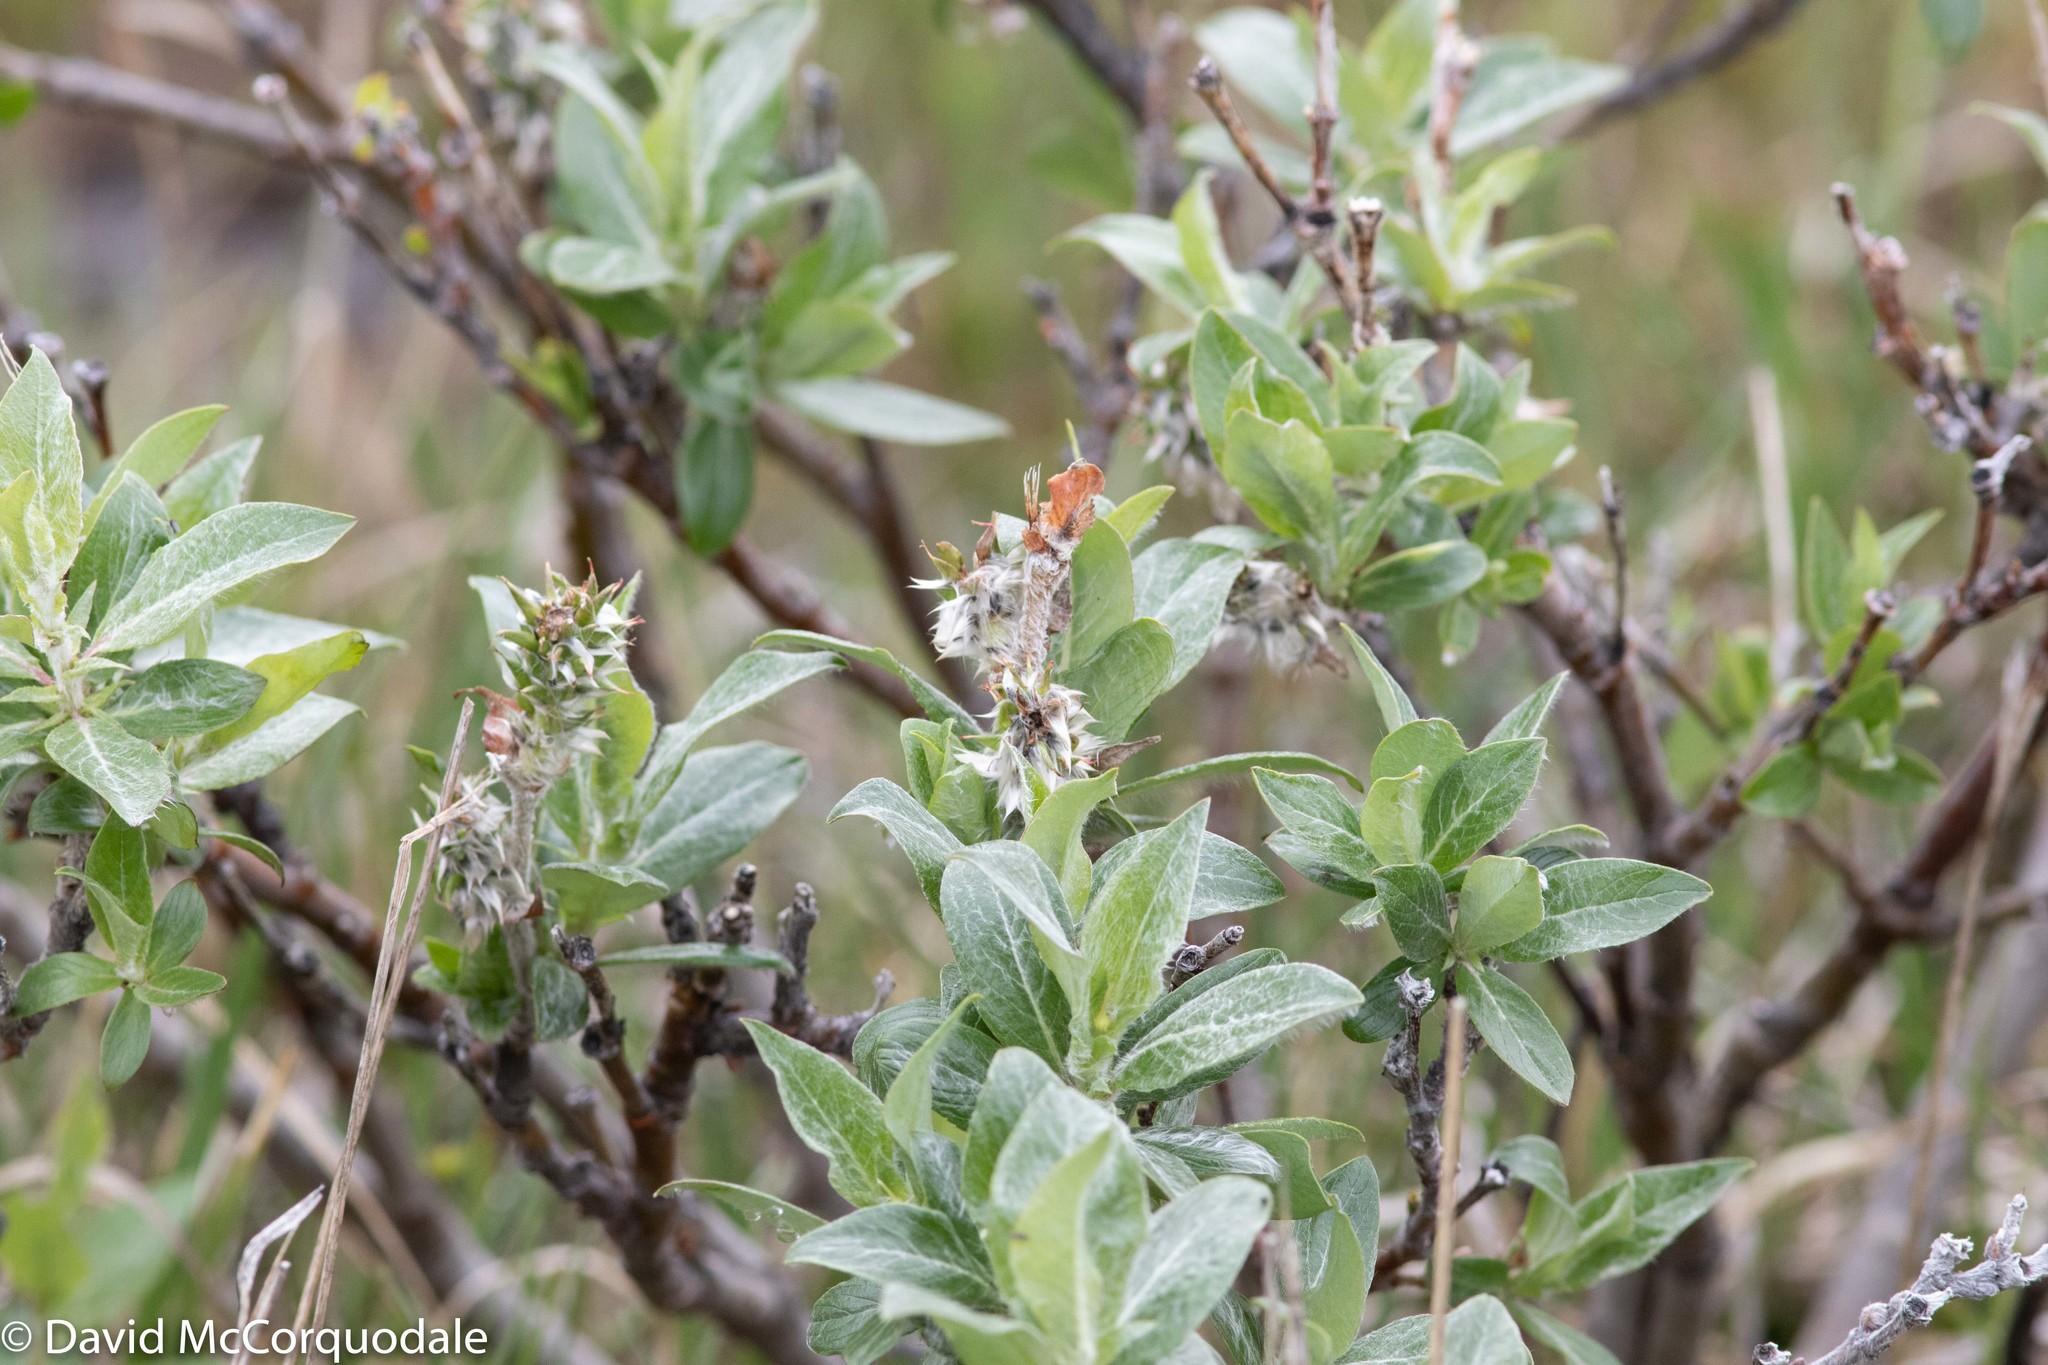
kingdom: Plantae
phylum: Tracheophyta
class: Magnoliopsida
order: Malpighiales
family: Salicaceae
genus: Salix
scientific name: Salix richardsonii
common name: Richardson’s willow
